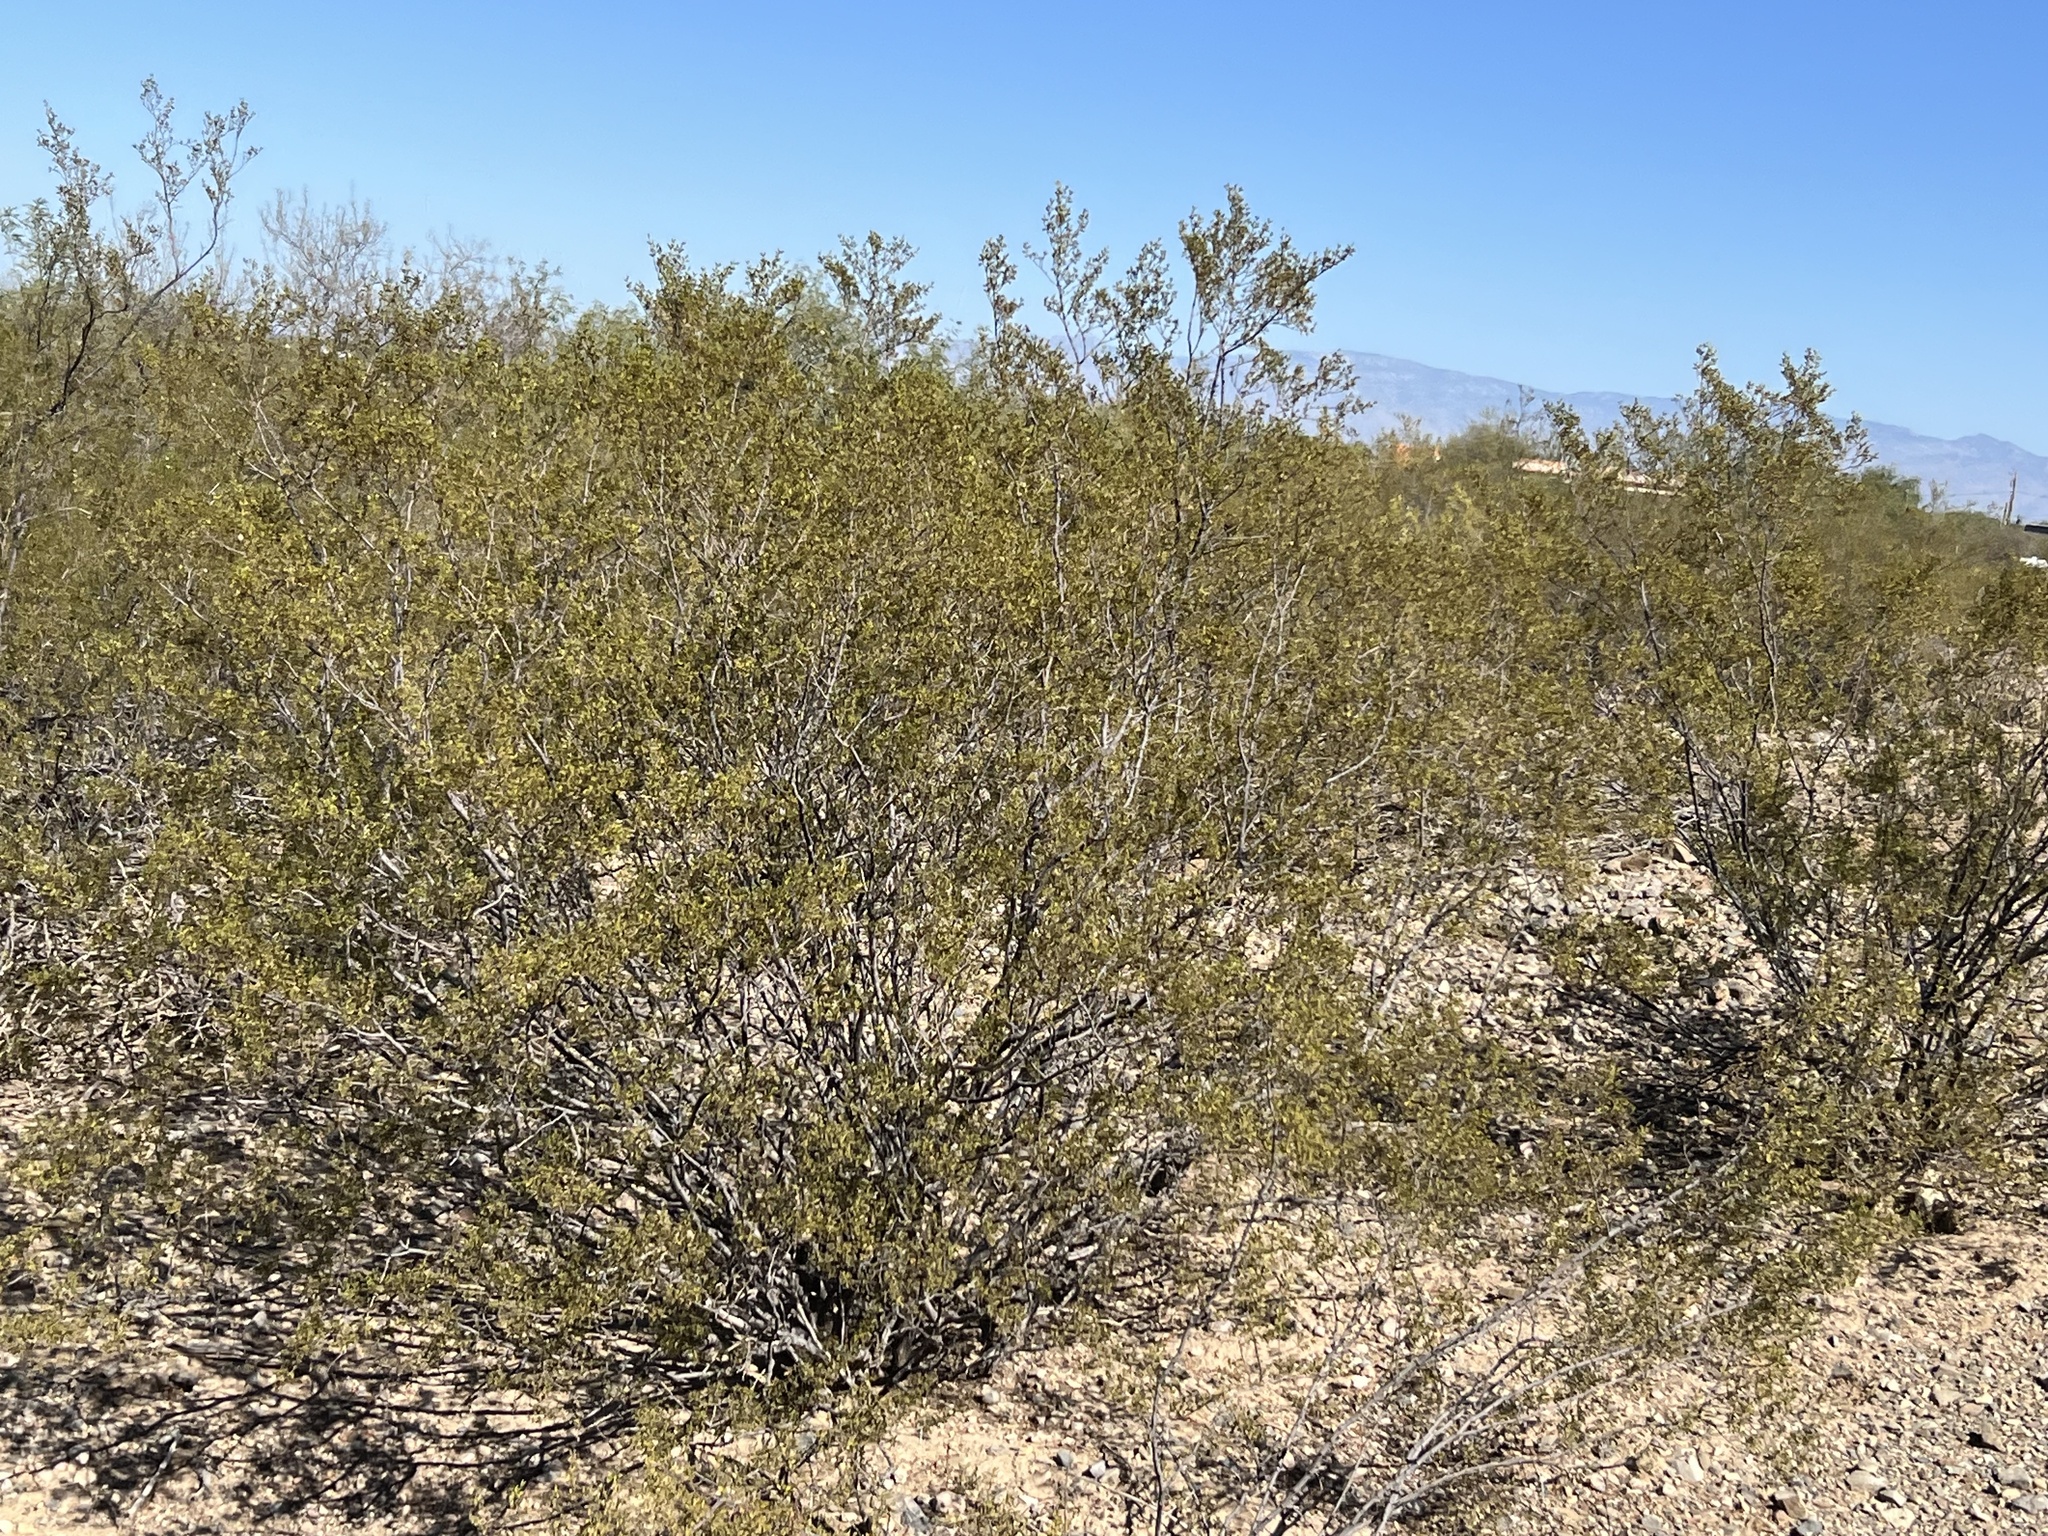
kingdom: Plantae
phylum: Tracheophyta
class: Magnoliopsida
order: Zygophyllales
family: Zygophyllaceae
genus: Larrea
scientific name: Larrea tridentata
